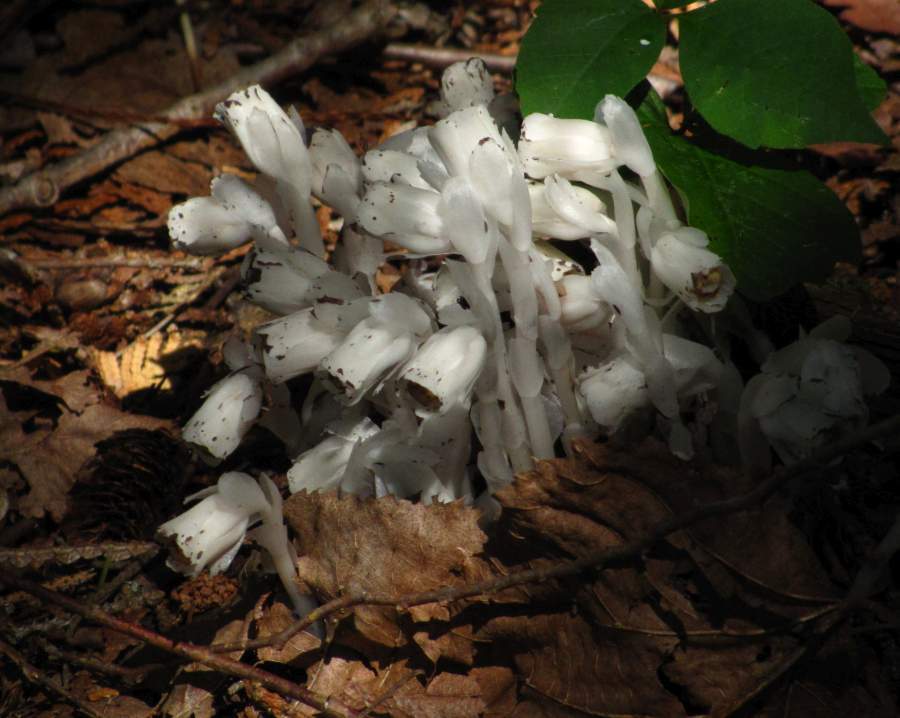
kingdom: Plantae
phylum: Tracheophyta
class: Magnoliopsida
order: Ericales
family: Ericaceae
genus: Monotropa
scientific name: Monotropa uniflora
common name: Convulsion root
